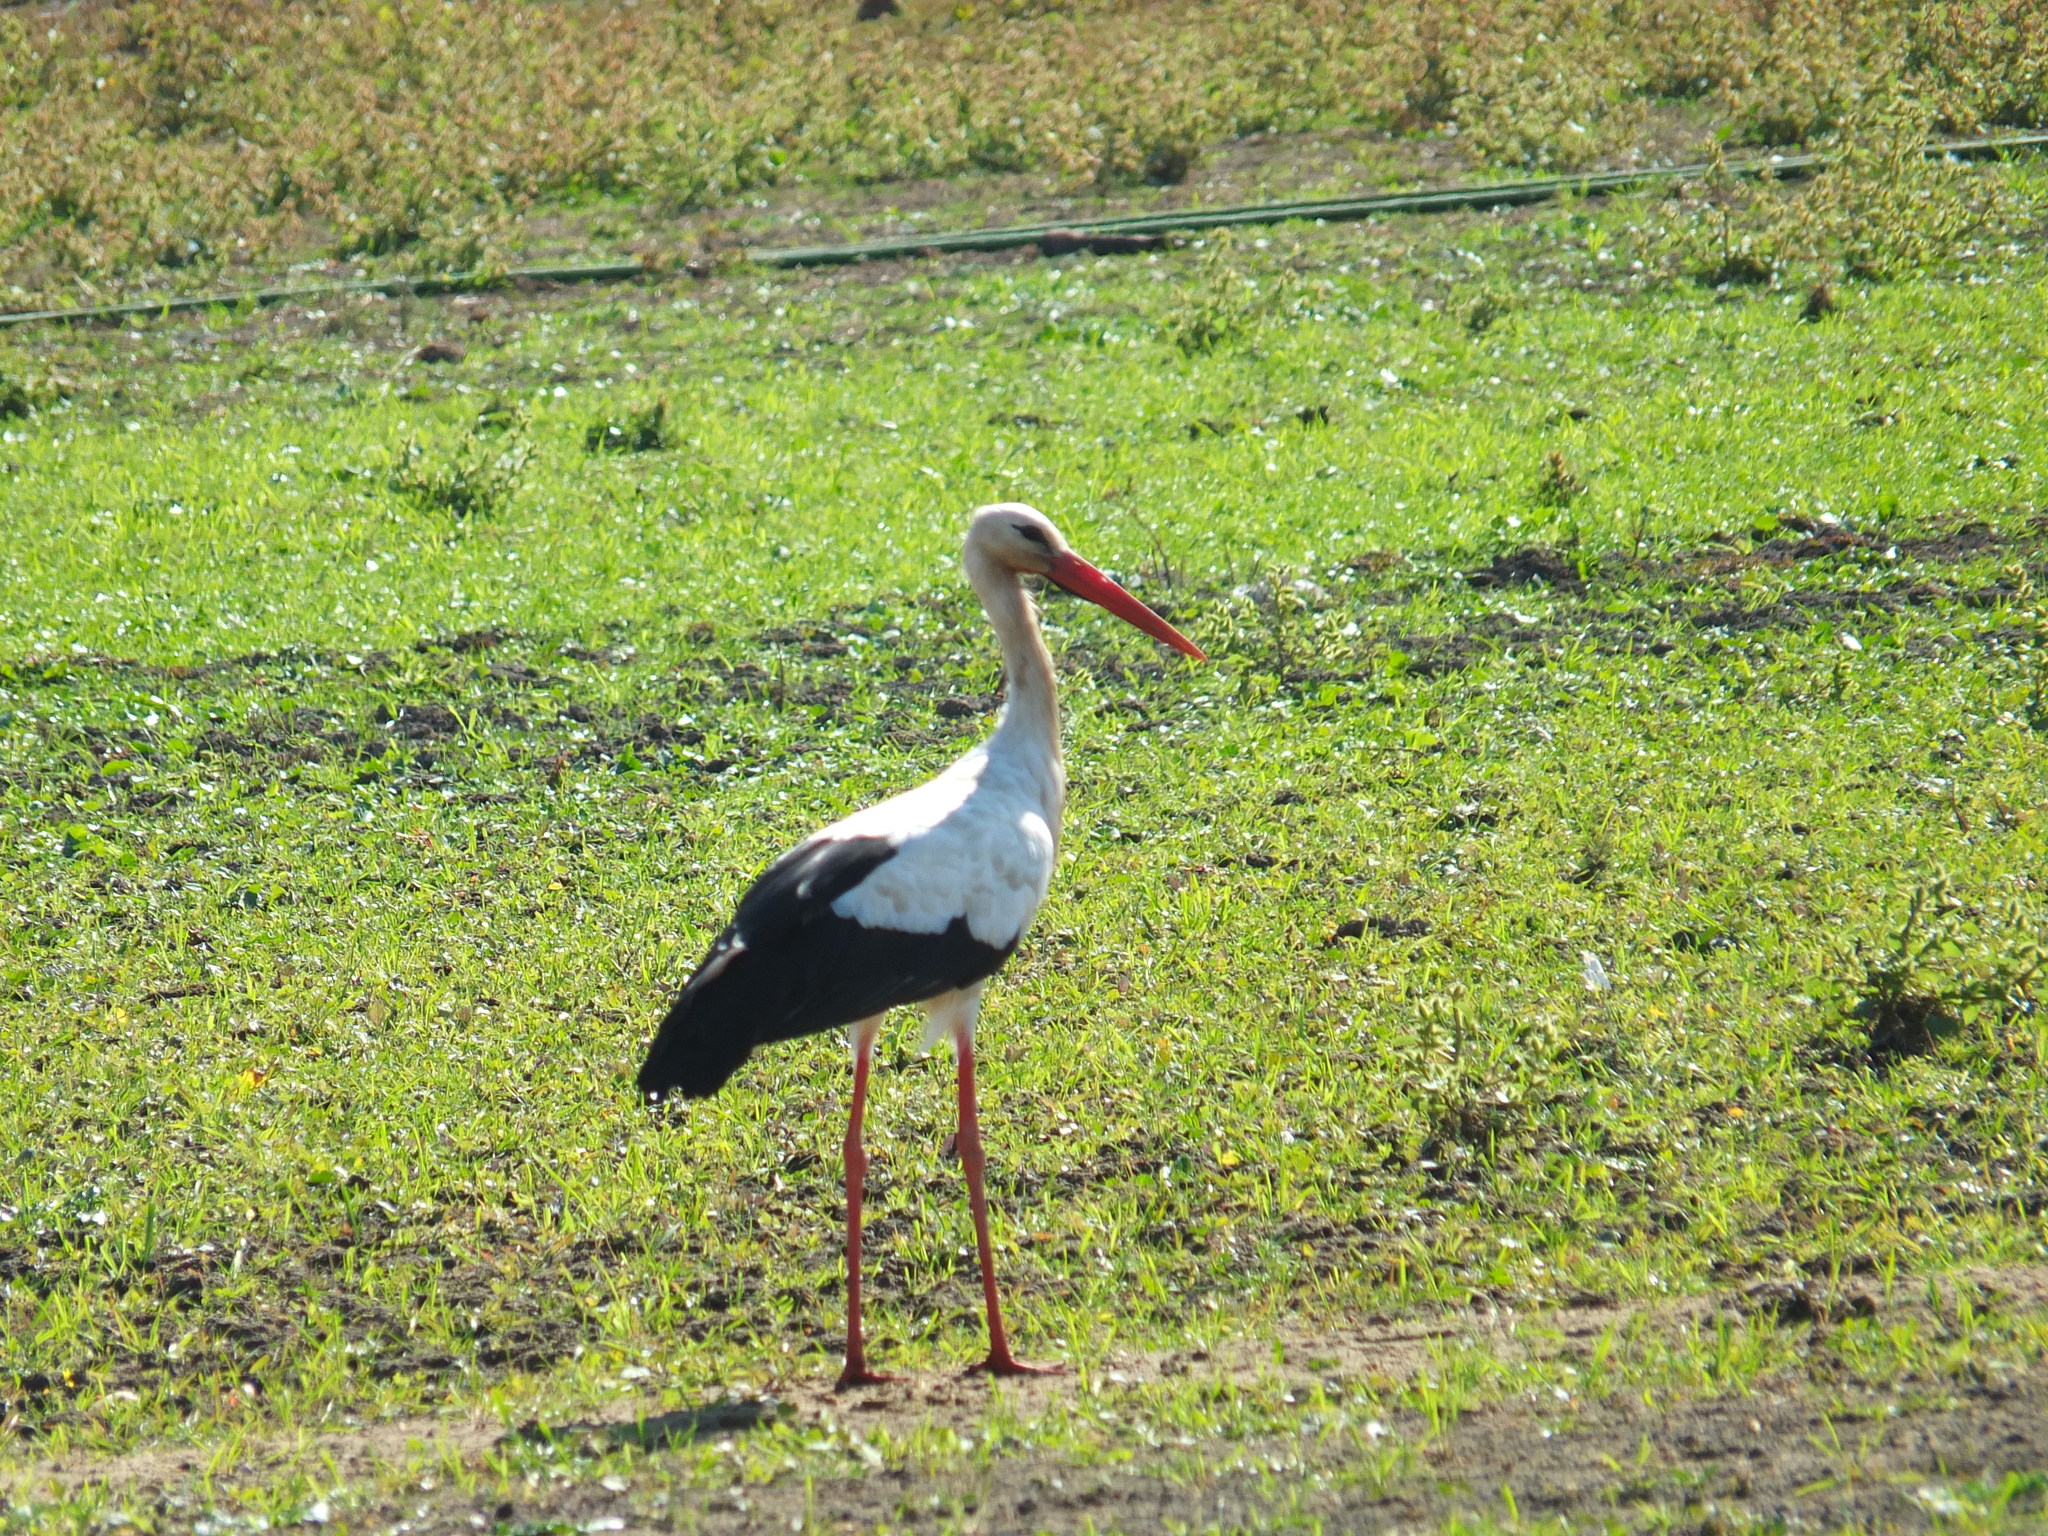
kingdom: Animalia
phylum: Chordata
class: Aves
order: Ciconiiformes
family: Ciconiidae
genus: Ciconia
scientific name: Ciconia ciconia
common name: White stork
